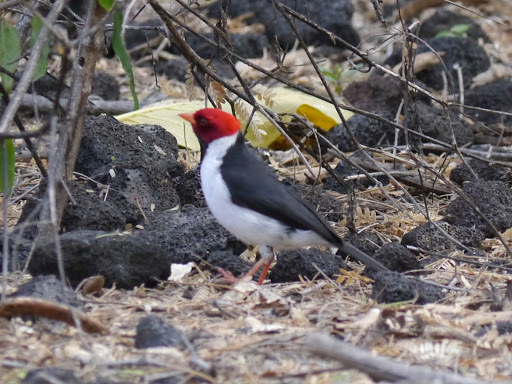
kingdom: Animalia
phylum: Chordata
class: Aves
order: Passeriformes
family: Thraupidae
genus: Paroaria
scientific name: Paroaria capitata
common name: Yellow-billed cardinal
